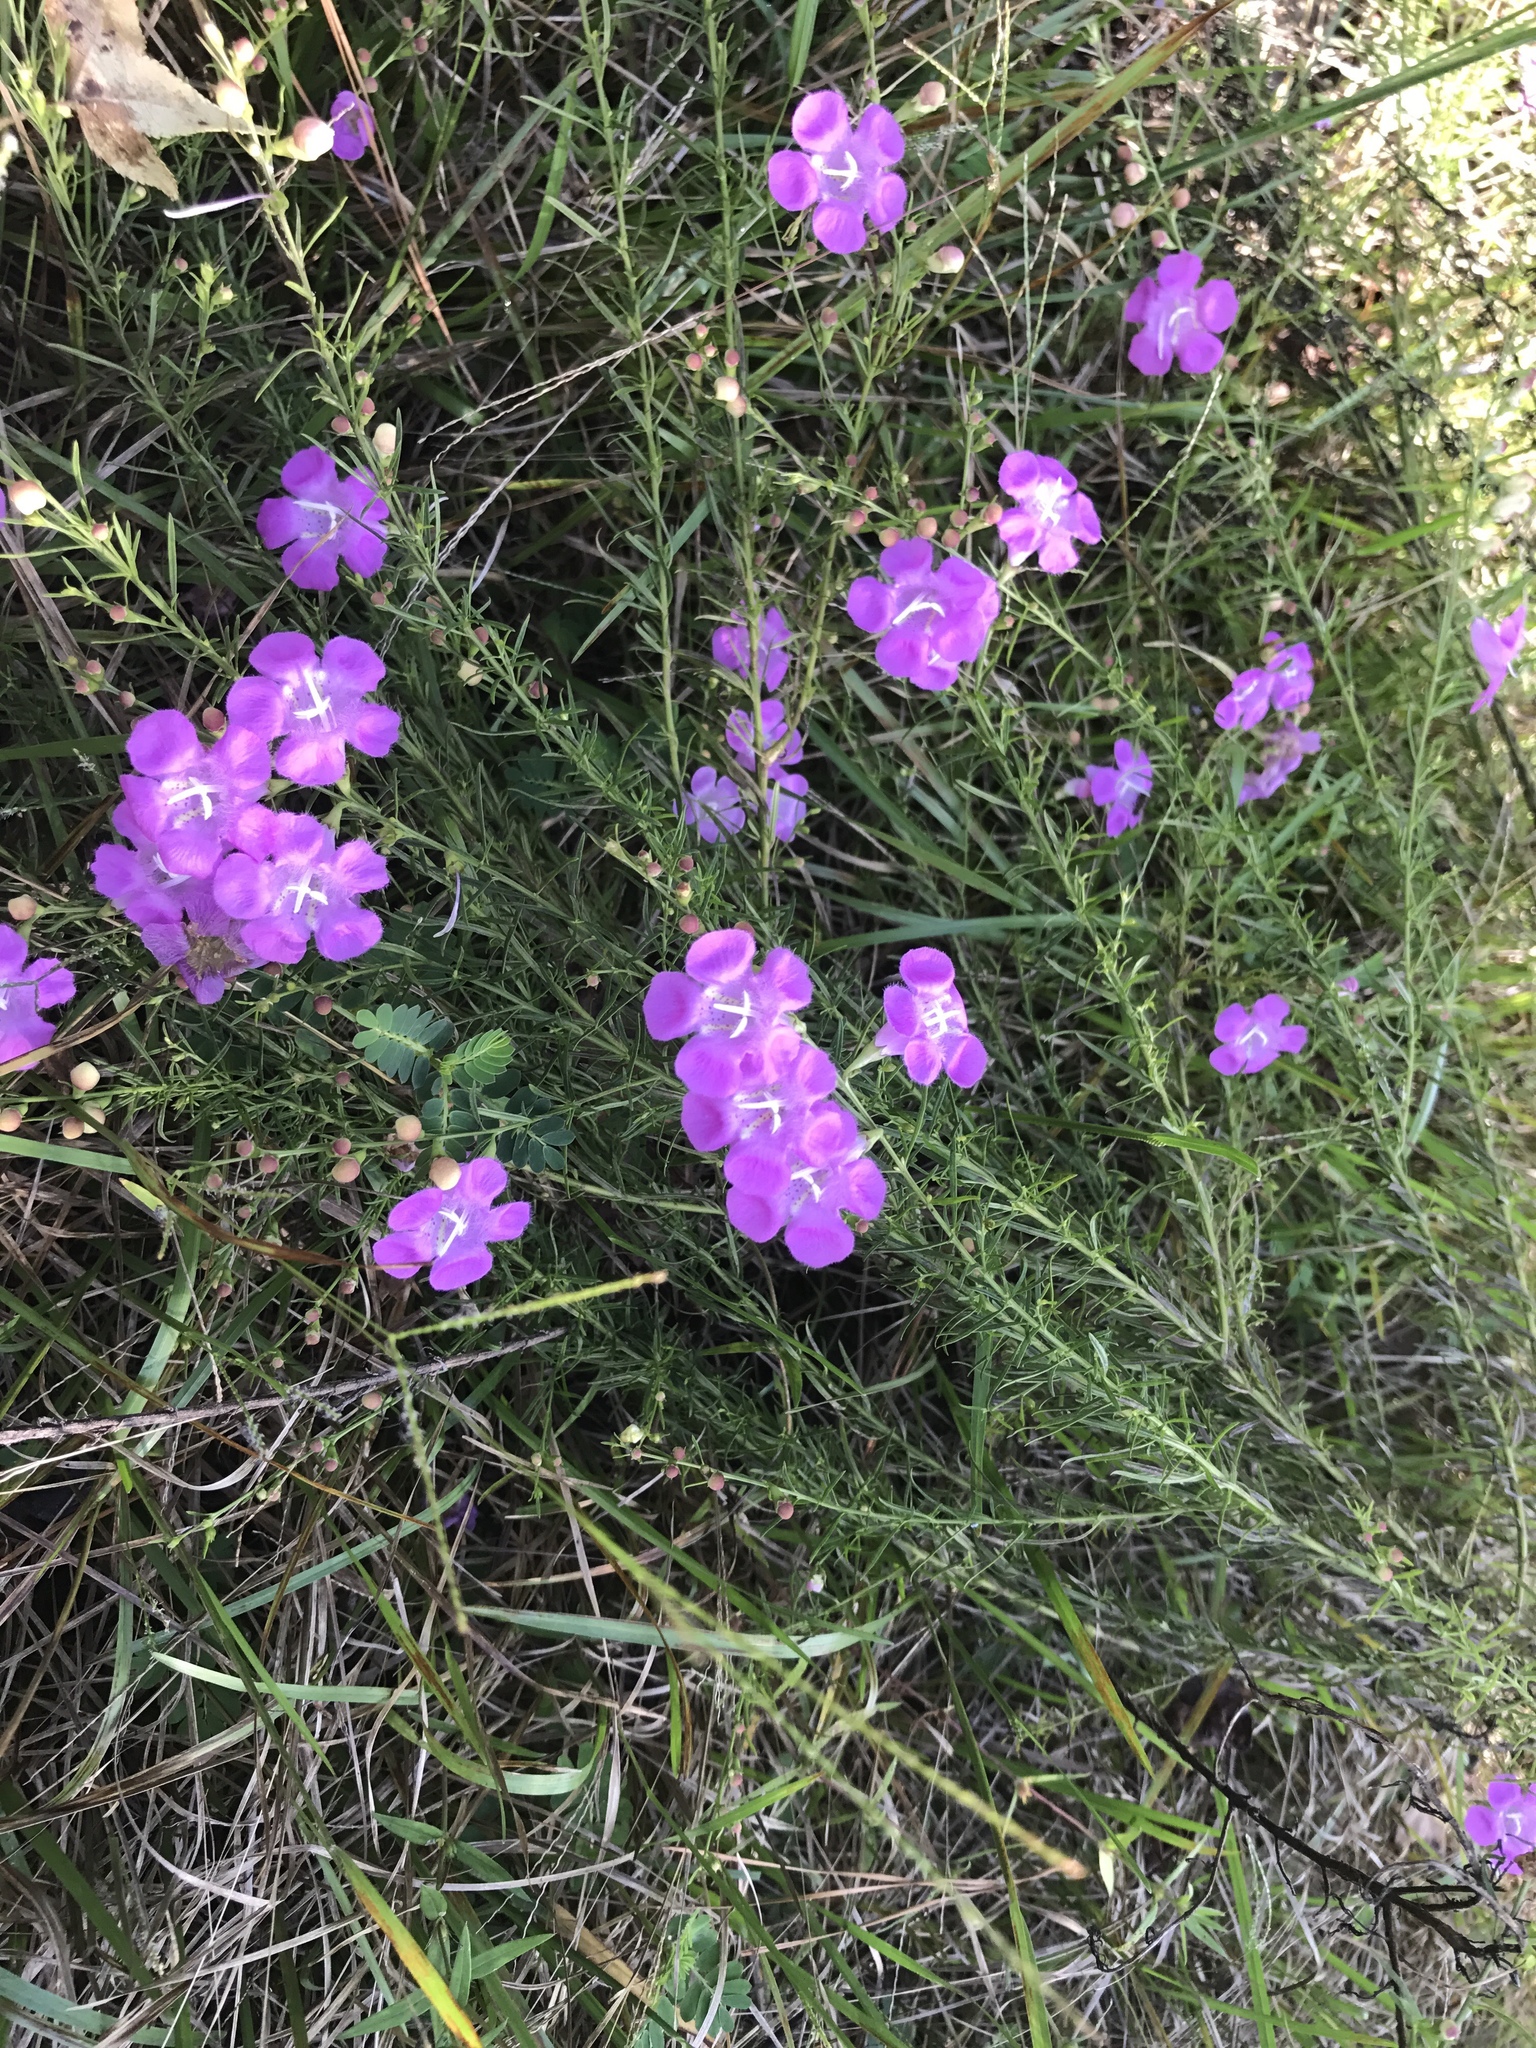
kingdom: Plantae
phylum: Tracheophyta
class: Magnoliopsida
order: Lamiales
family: Orobanchaceae
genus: Agalinis
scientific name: Agalinis fasciculata
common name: Beach false foxglove
